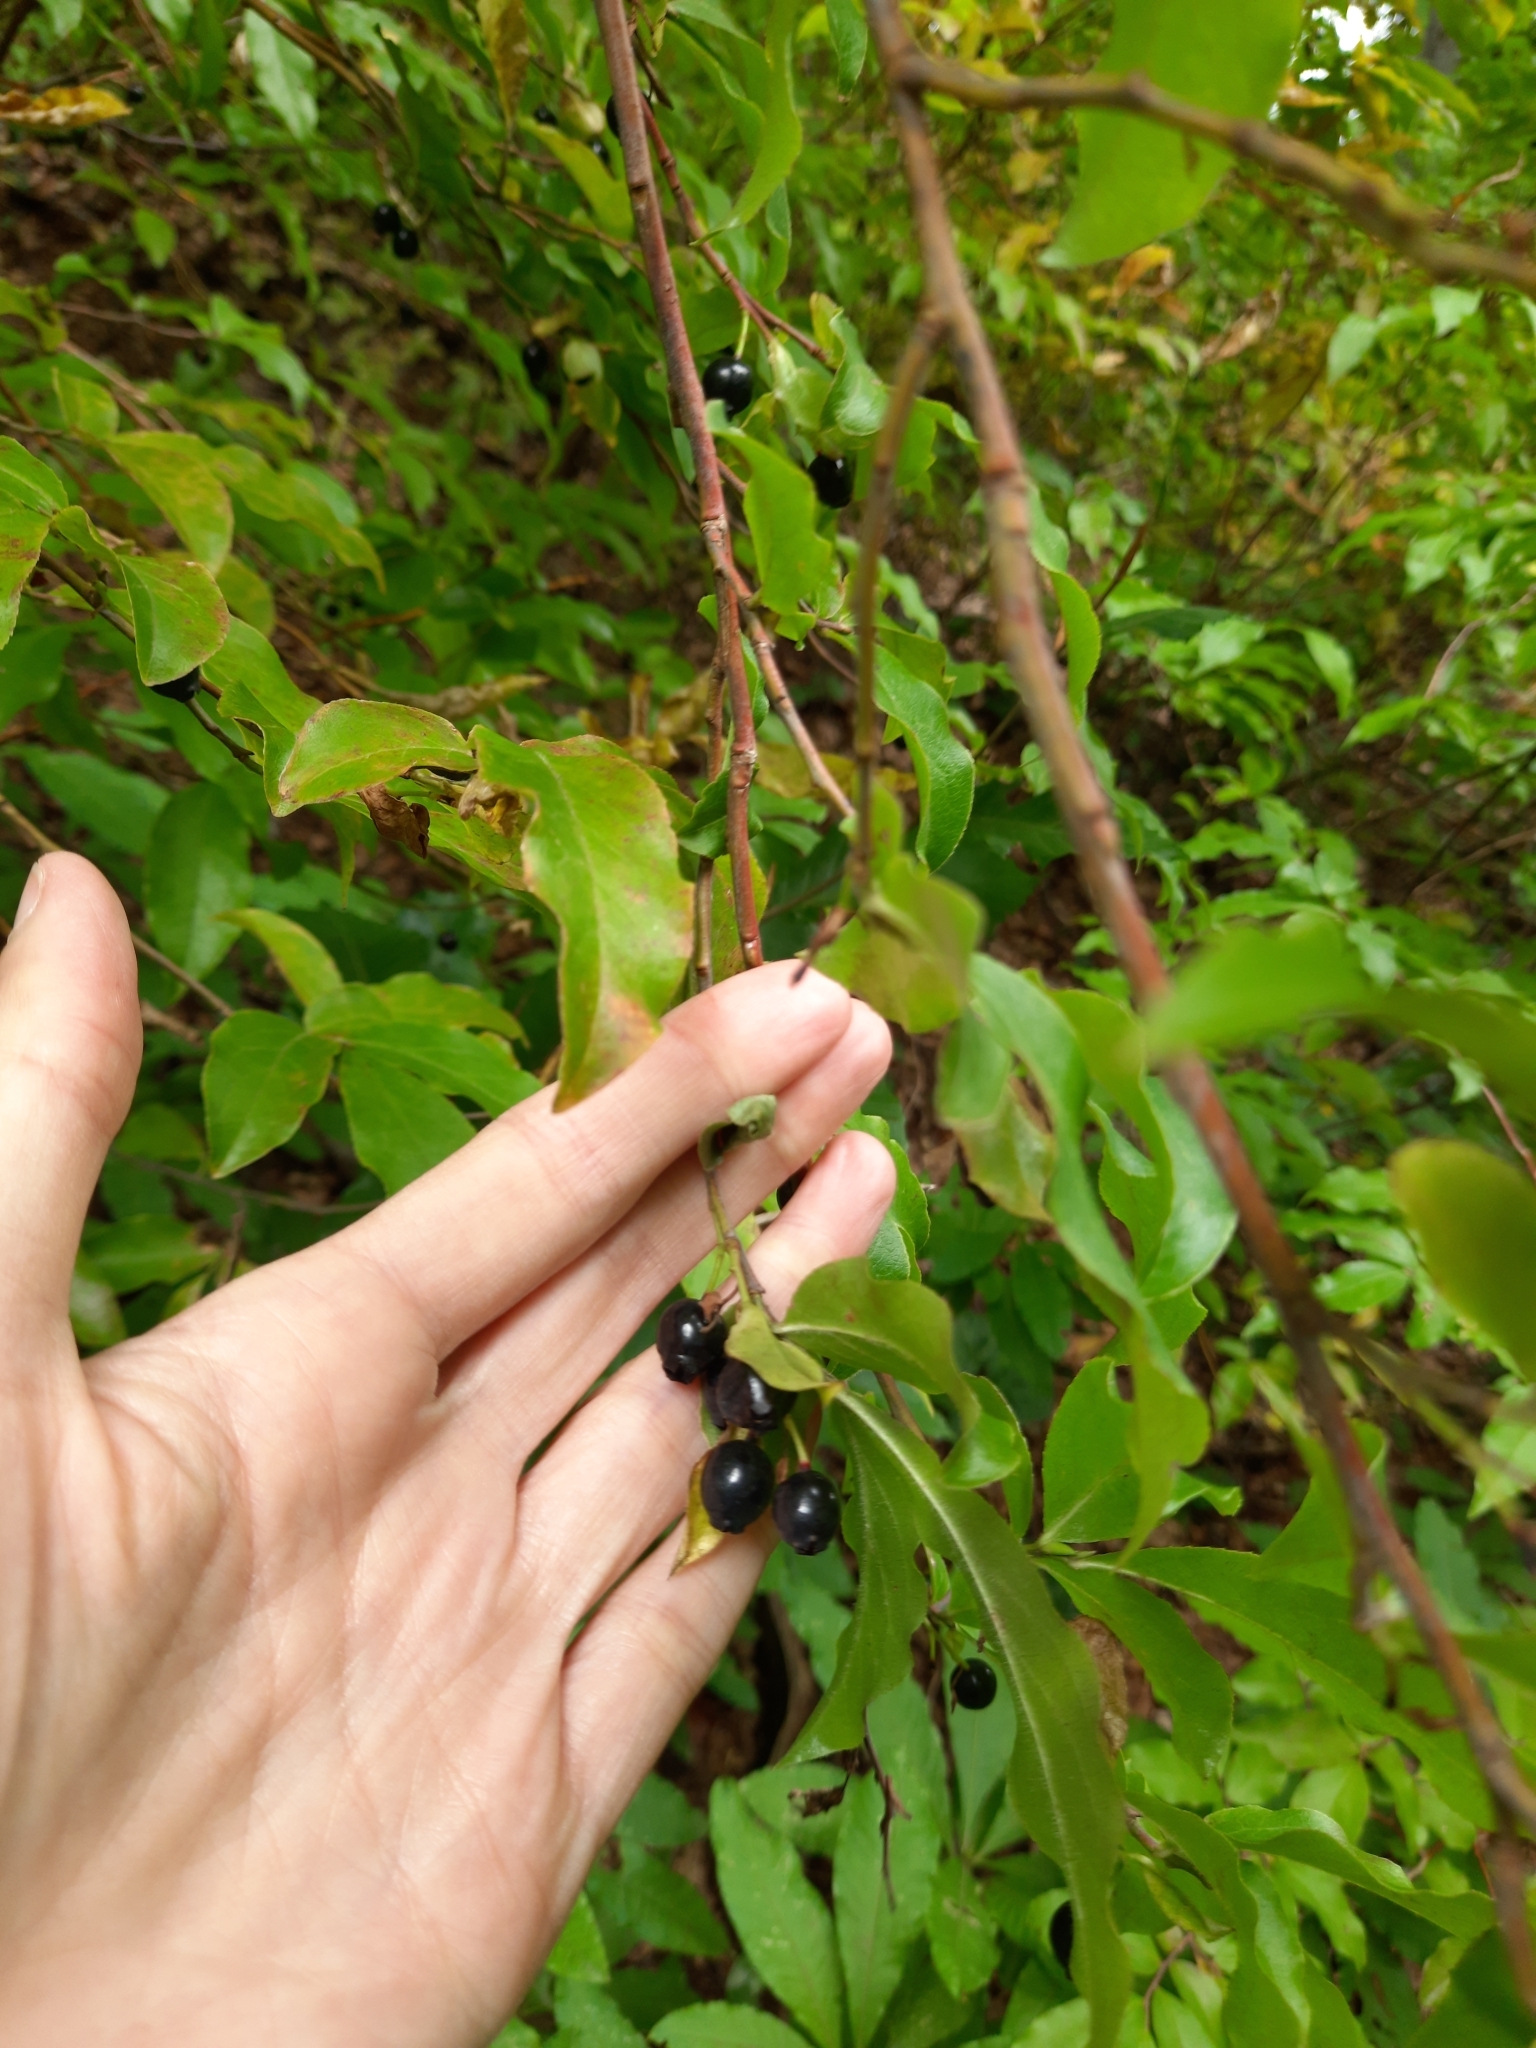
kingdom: Plantae
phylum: Tracheophyta
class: Magnoliopsida
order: Ericales
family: Ericaceae
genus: Vaccinium
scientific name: Vaccinium arctostaphylos
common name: Caucasian whortleberry
